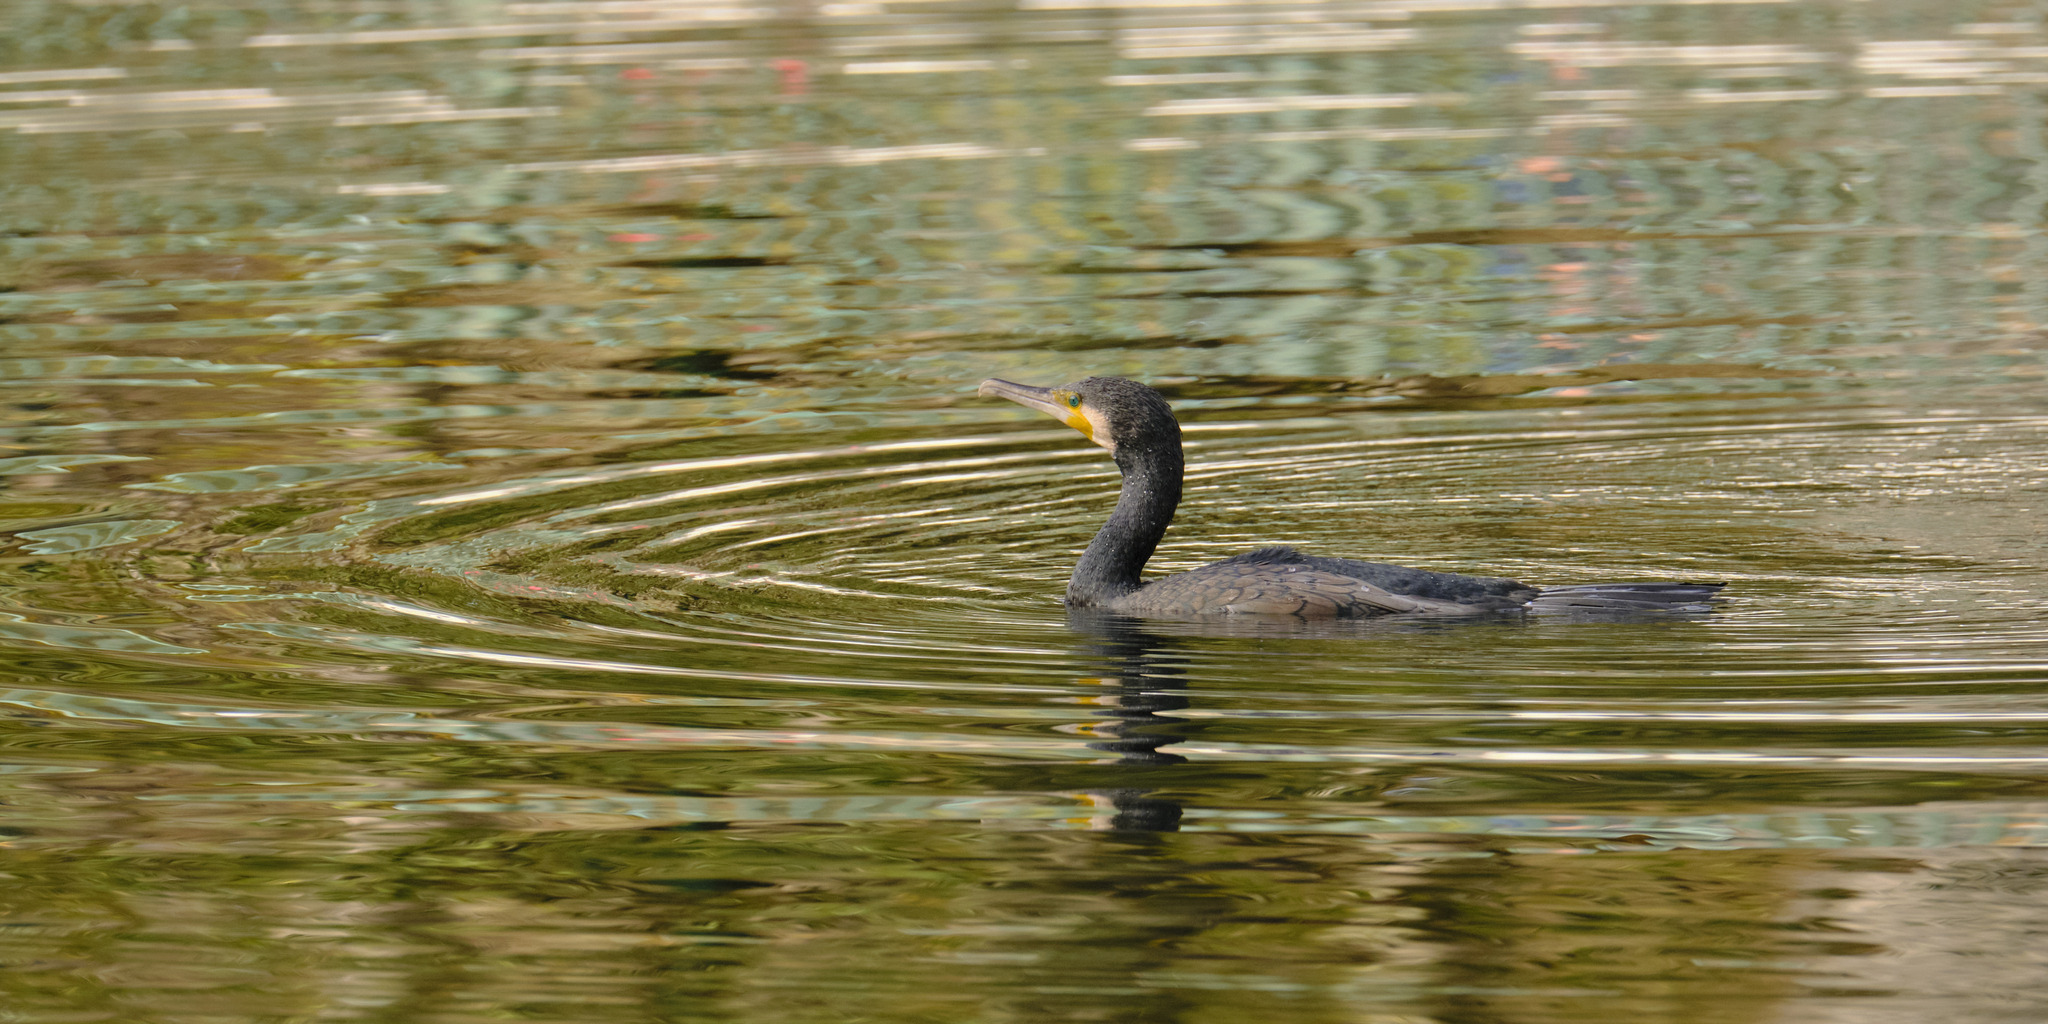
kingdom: Animalia
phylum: Chordata
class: Aves
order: Suliformes
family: Phalacrocoracidae
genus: Phalacrocorax
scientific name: Phalacrocorax carbo
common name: Great cormorant
